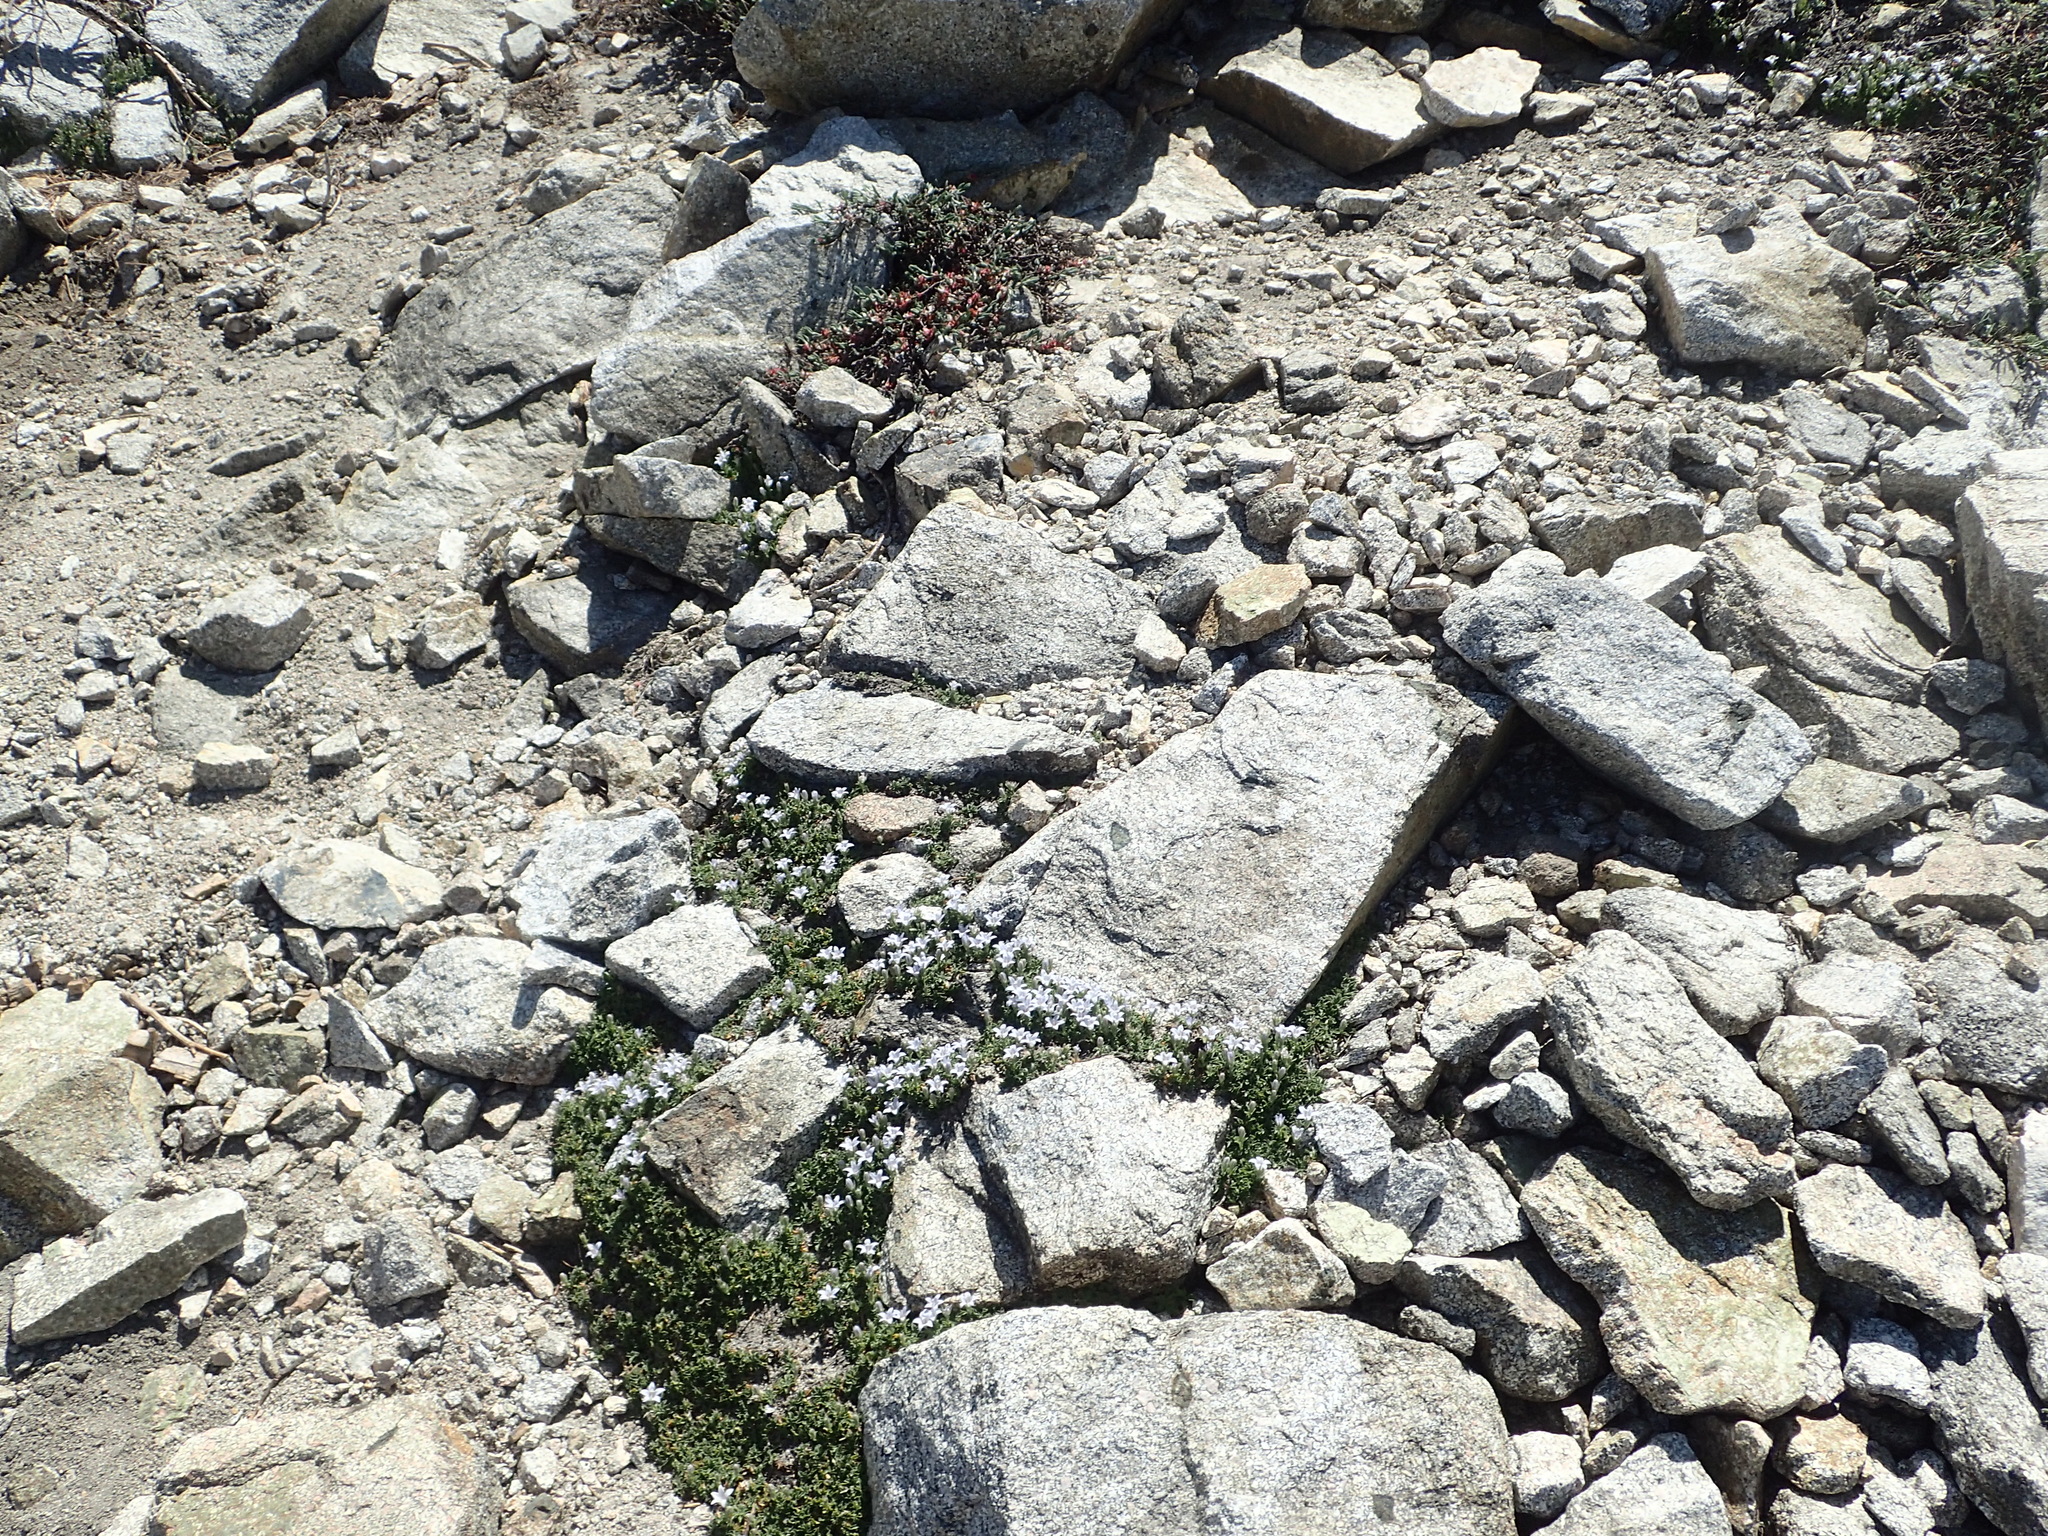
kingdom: Plantae
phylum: Tracheophyta
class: Magnoliopsida
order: Asterales
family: Campanulaceae
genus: Campanula
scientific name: Campanula shetleri
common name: Castle crag harebell
